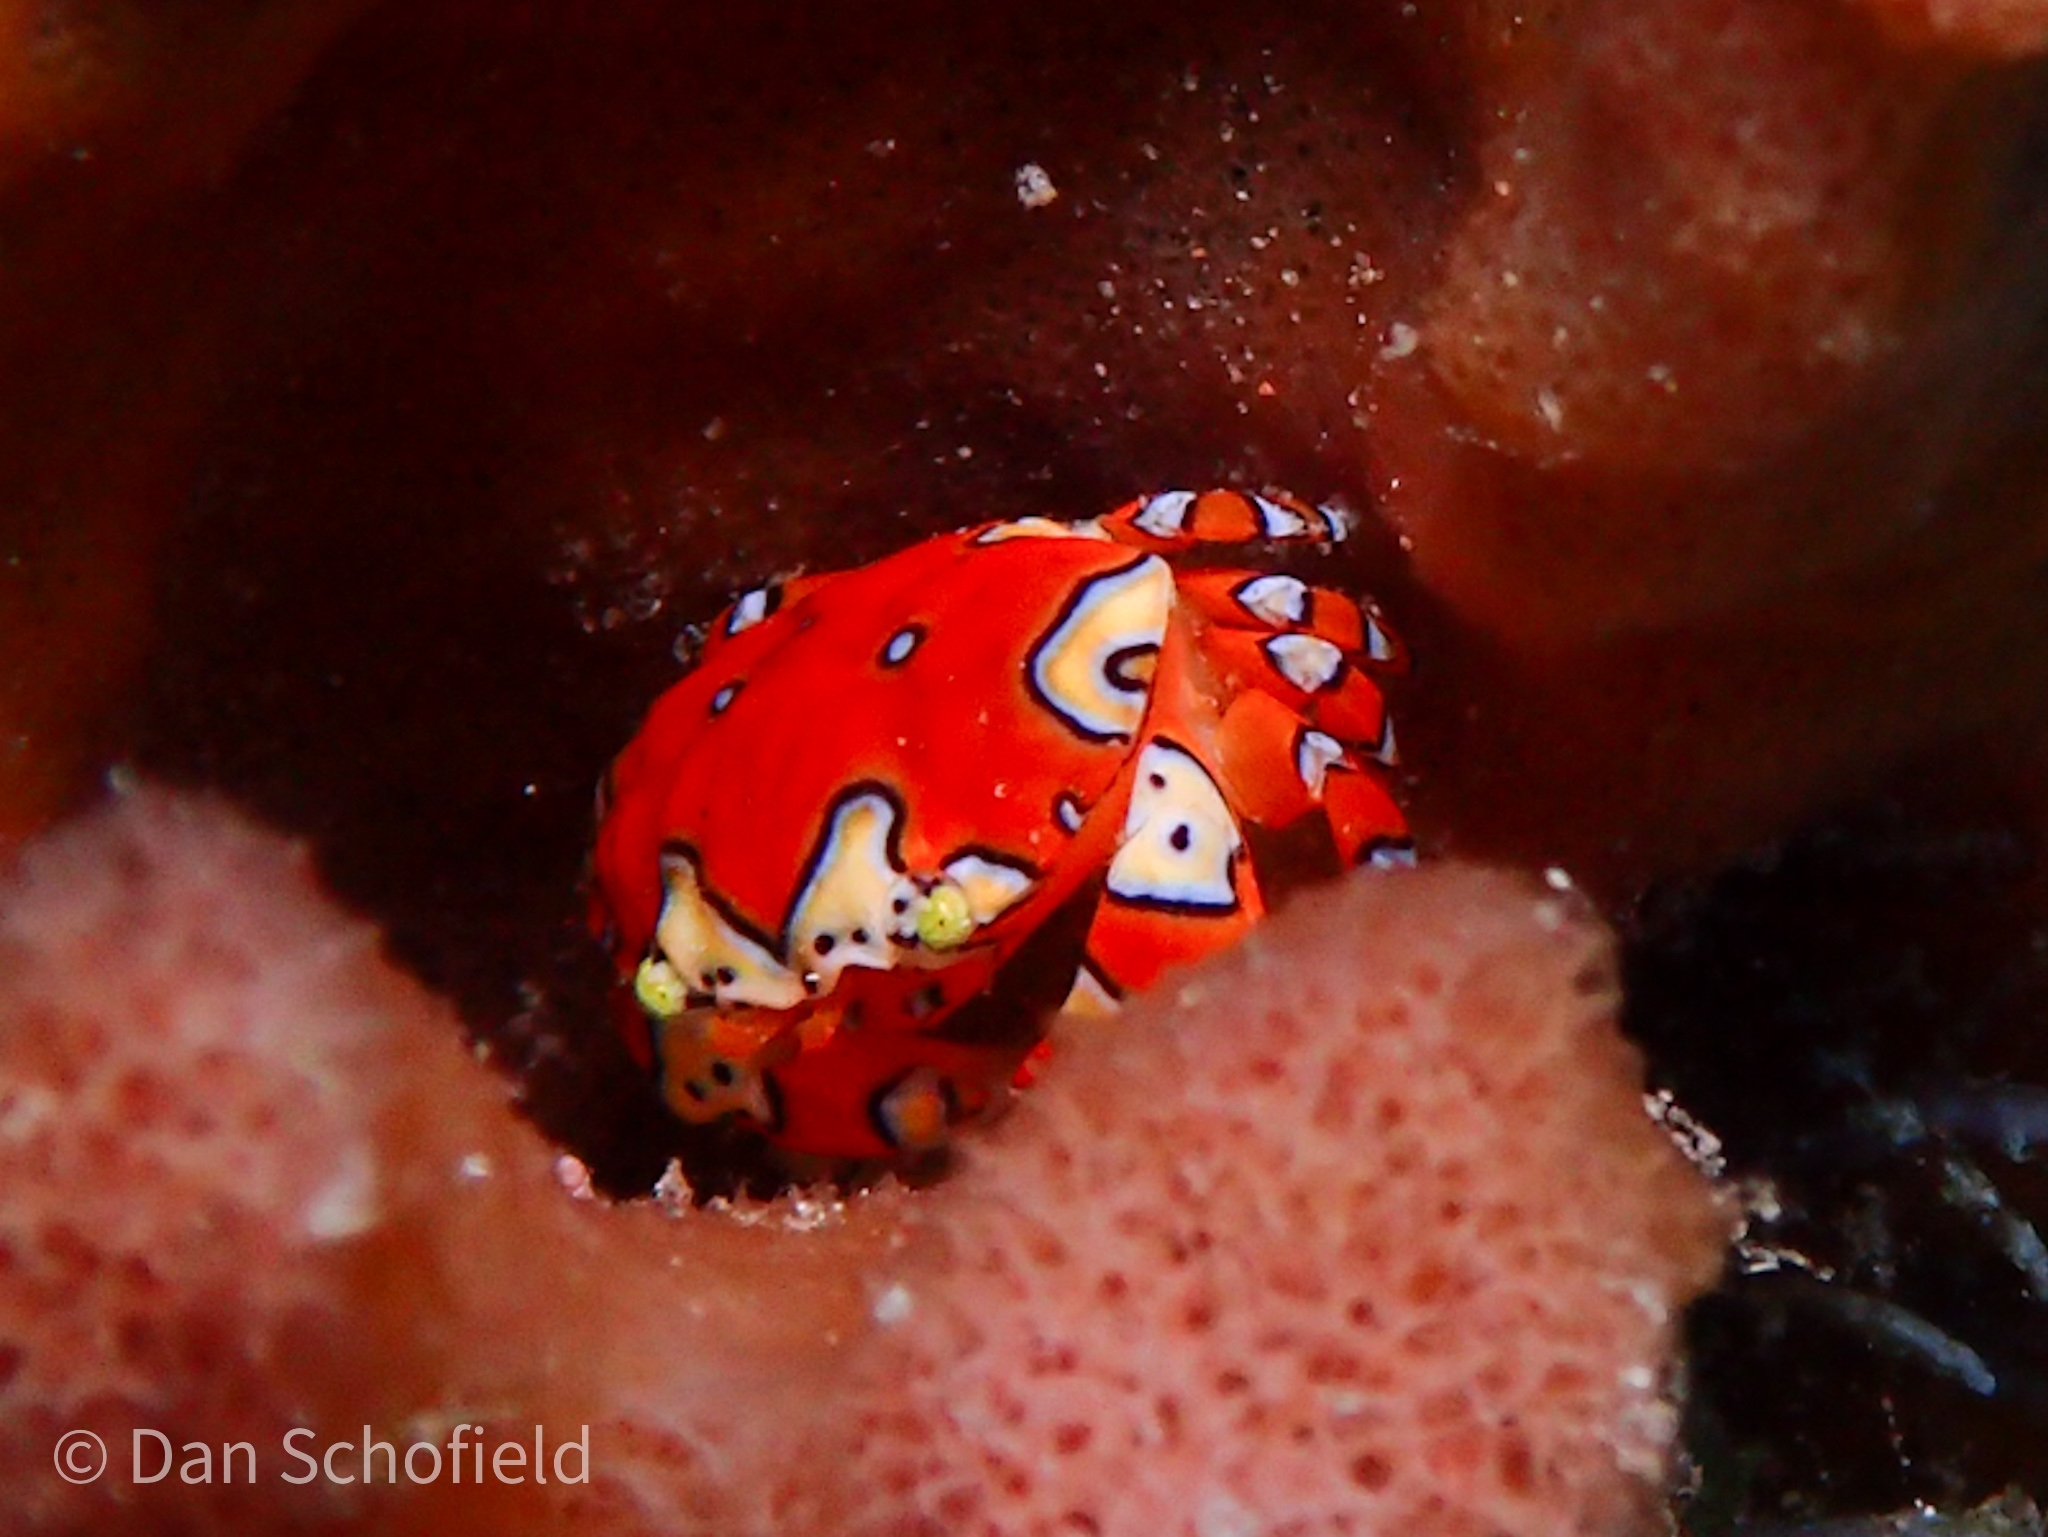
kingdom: Animalia
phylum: Arthropoda
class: Malacostraca
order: Decapoda
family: Xanthidae
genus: Platypodiella
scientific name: Platypodiella spectabilis
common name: Herbst's platypodia
